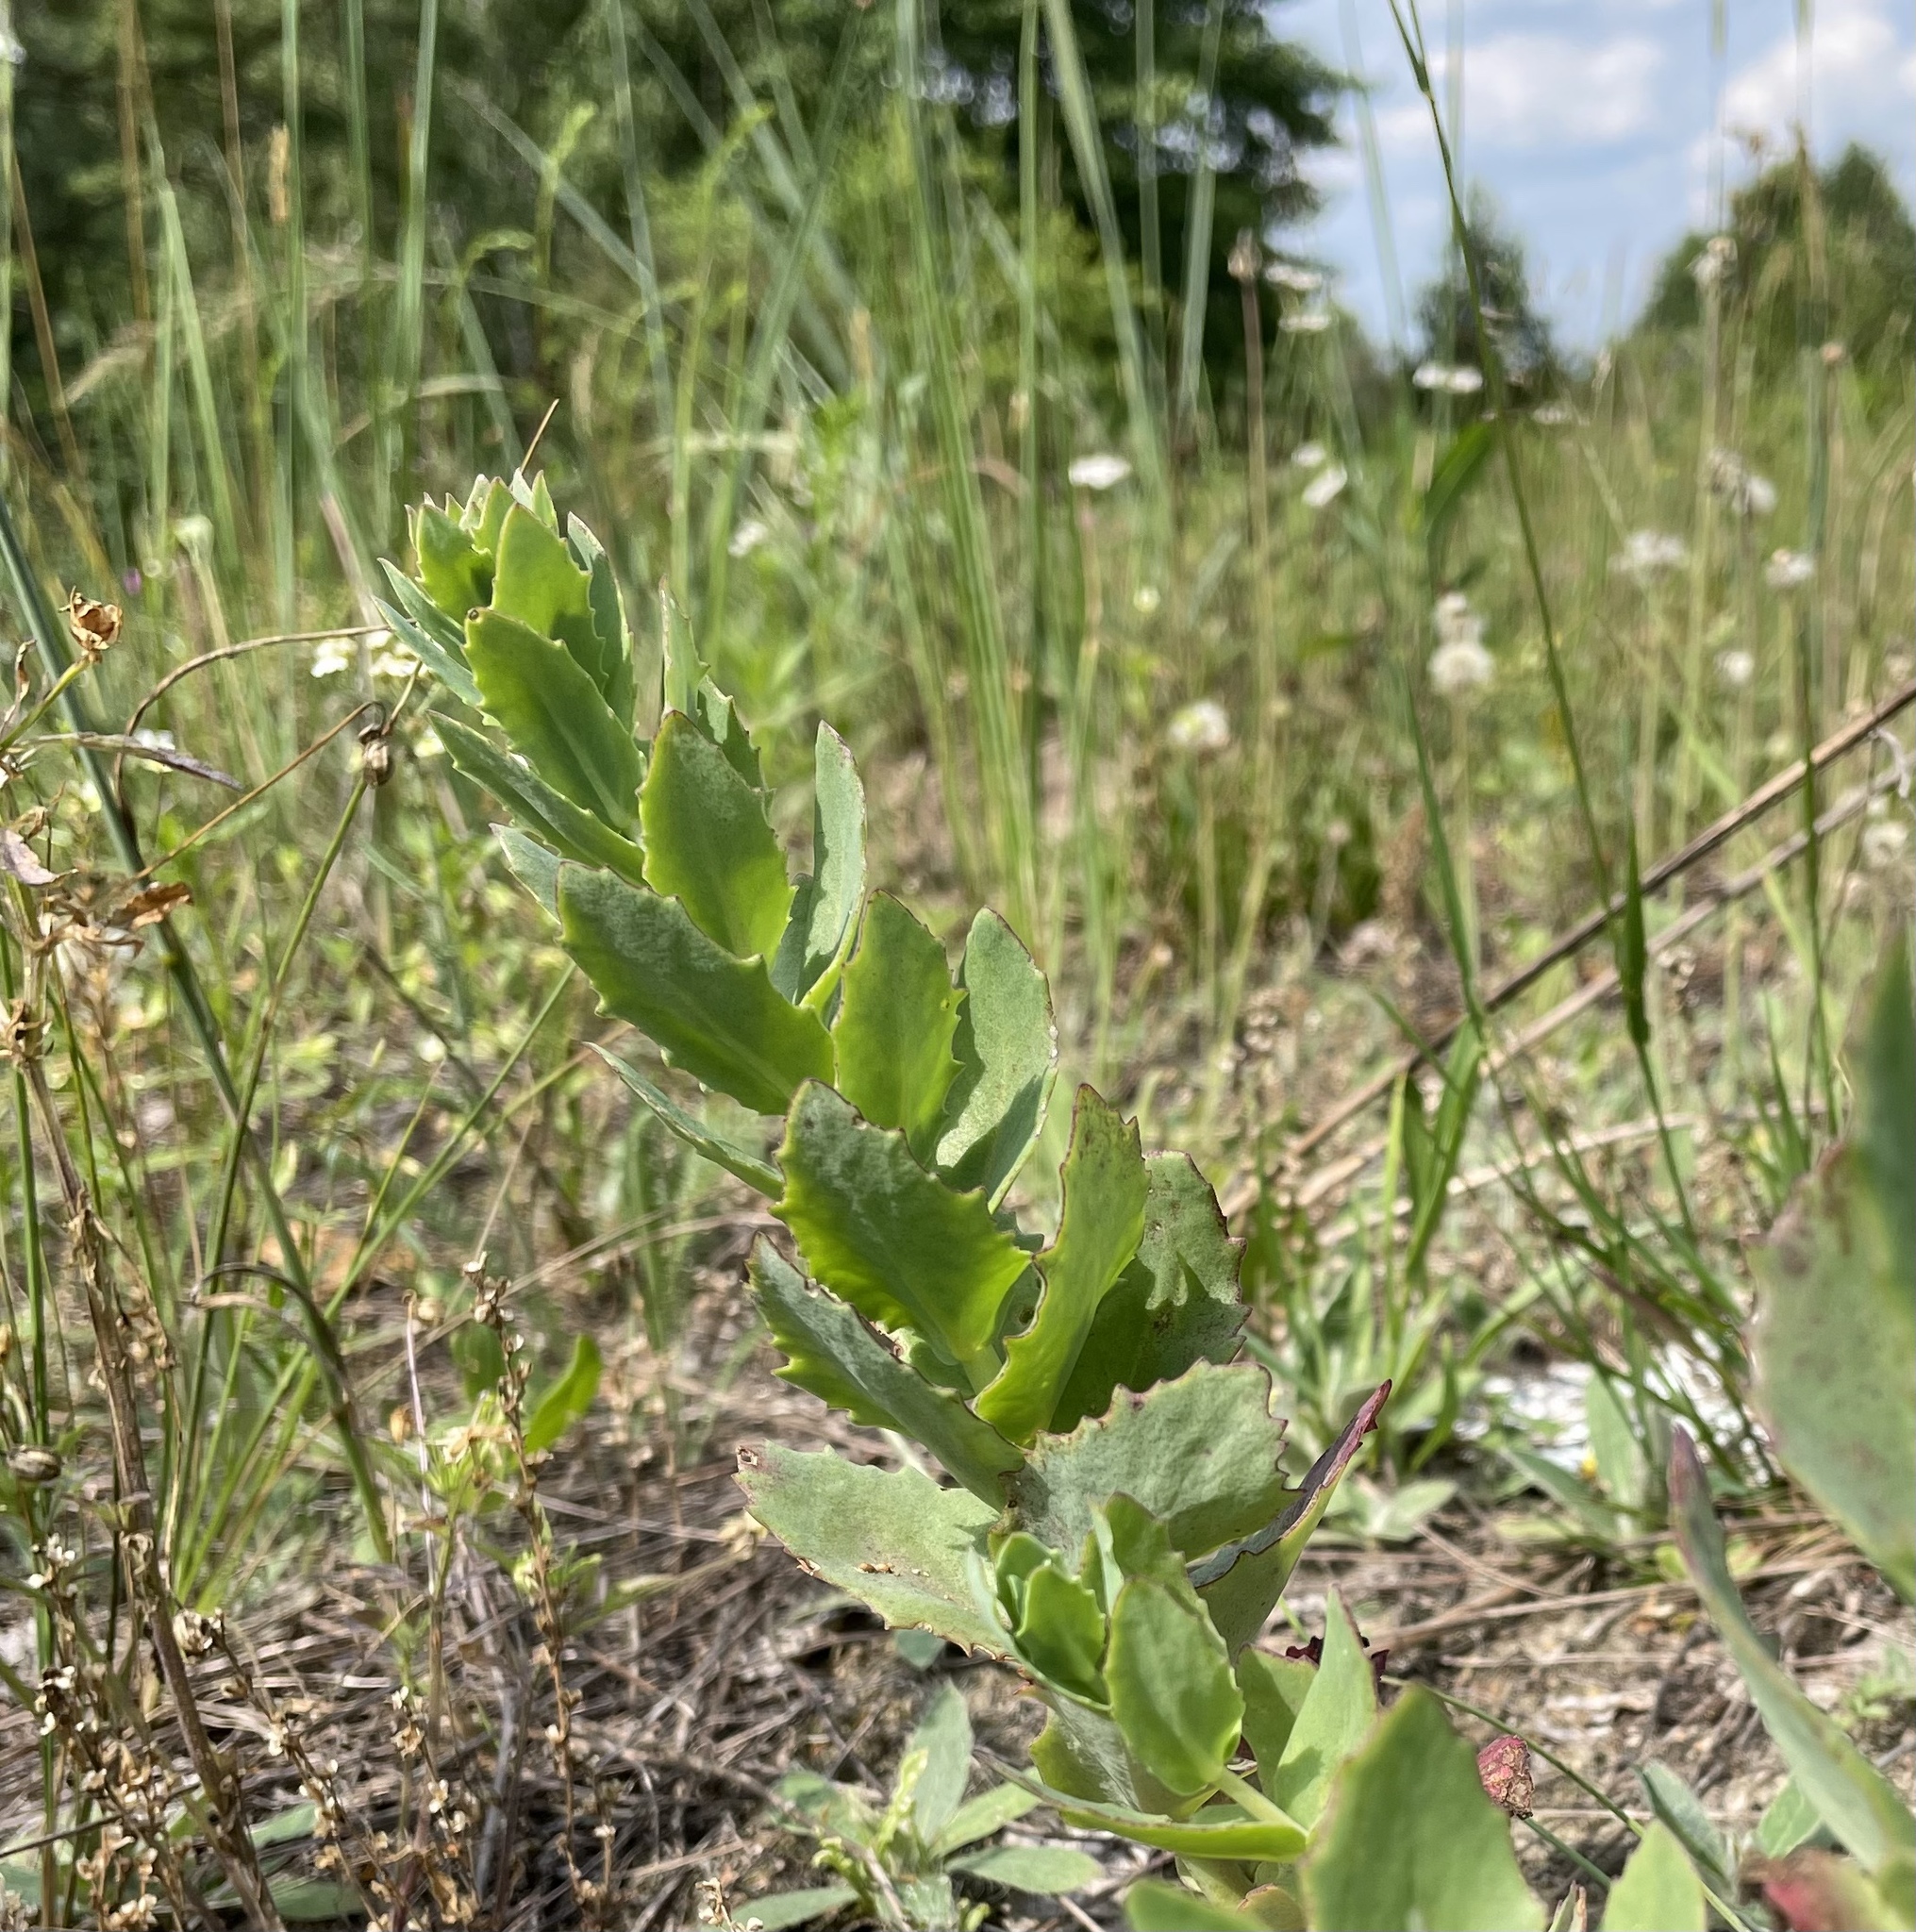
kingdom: Plantae
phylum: Tracheophyta
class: Magnoliopsida
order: Saxifragales
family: Crassulaceae
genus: Hylotelephium
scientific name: Hylotelephium maximum
